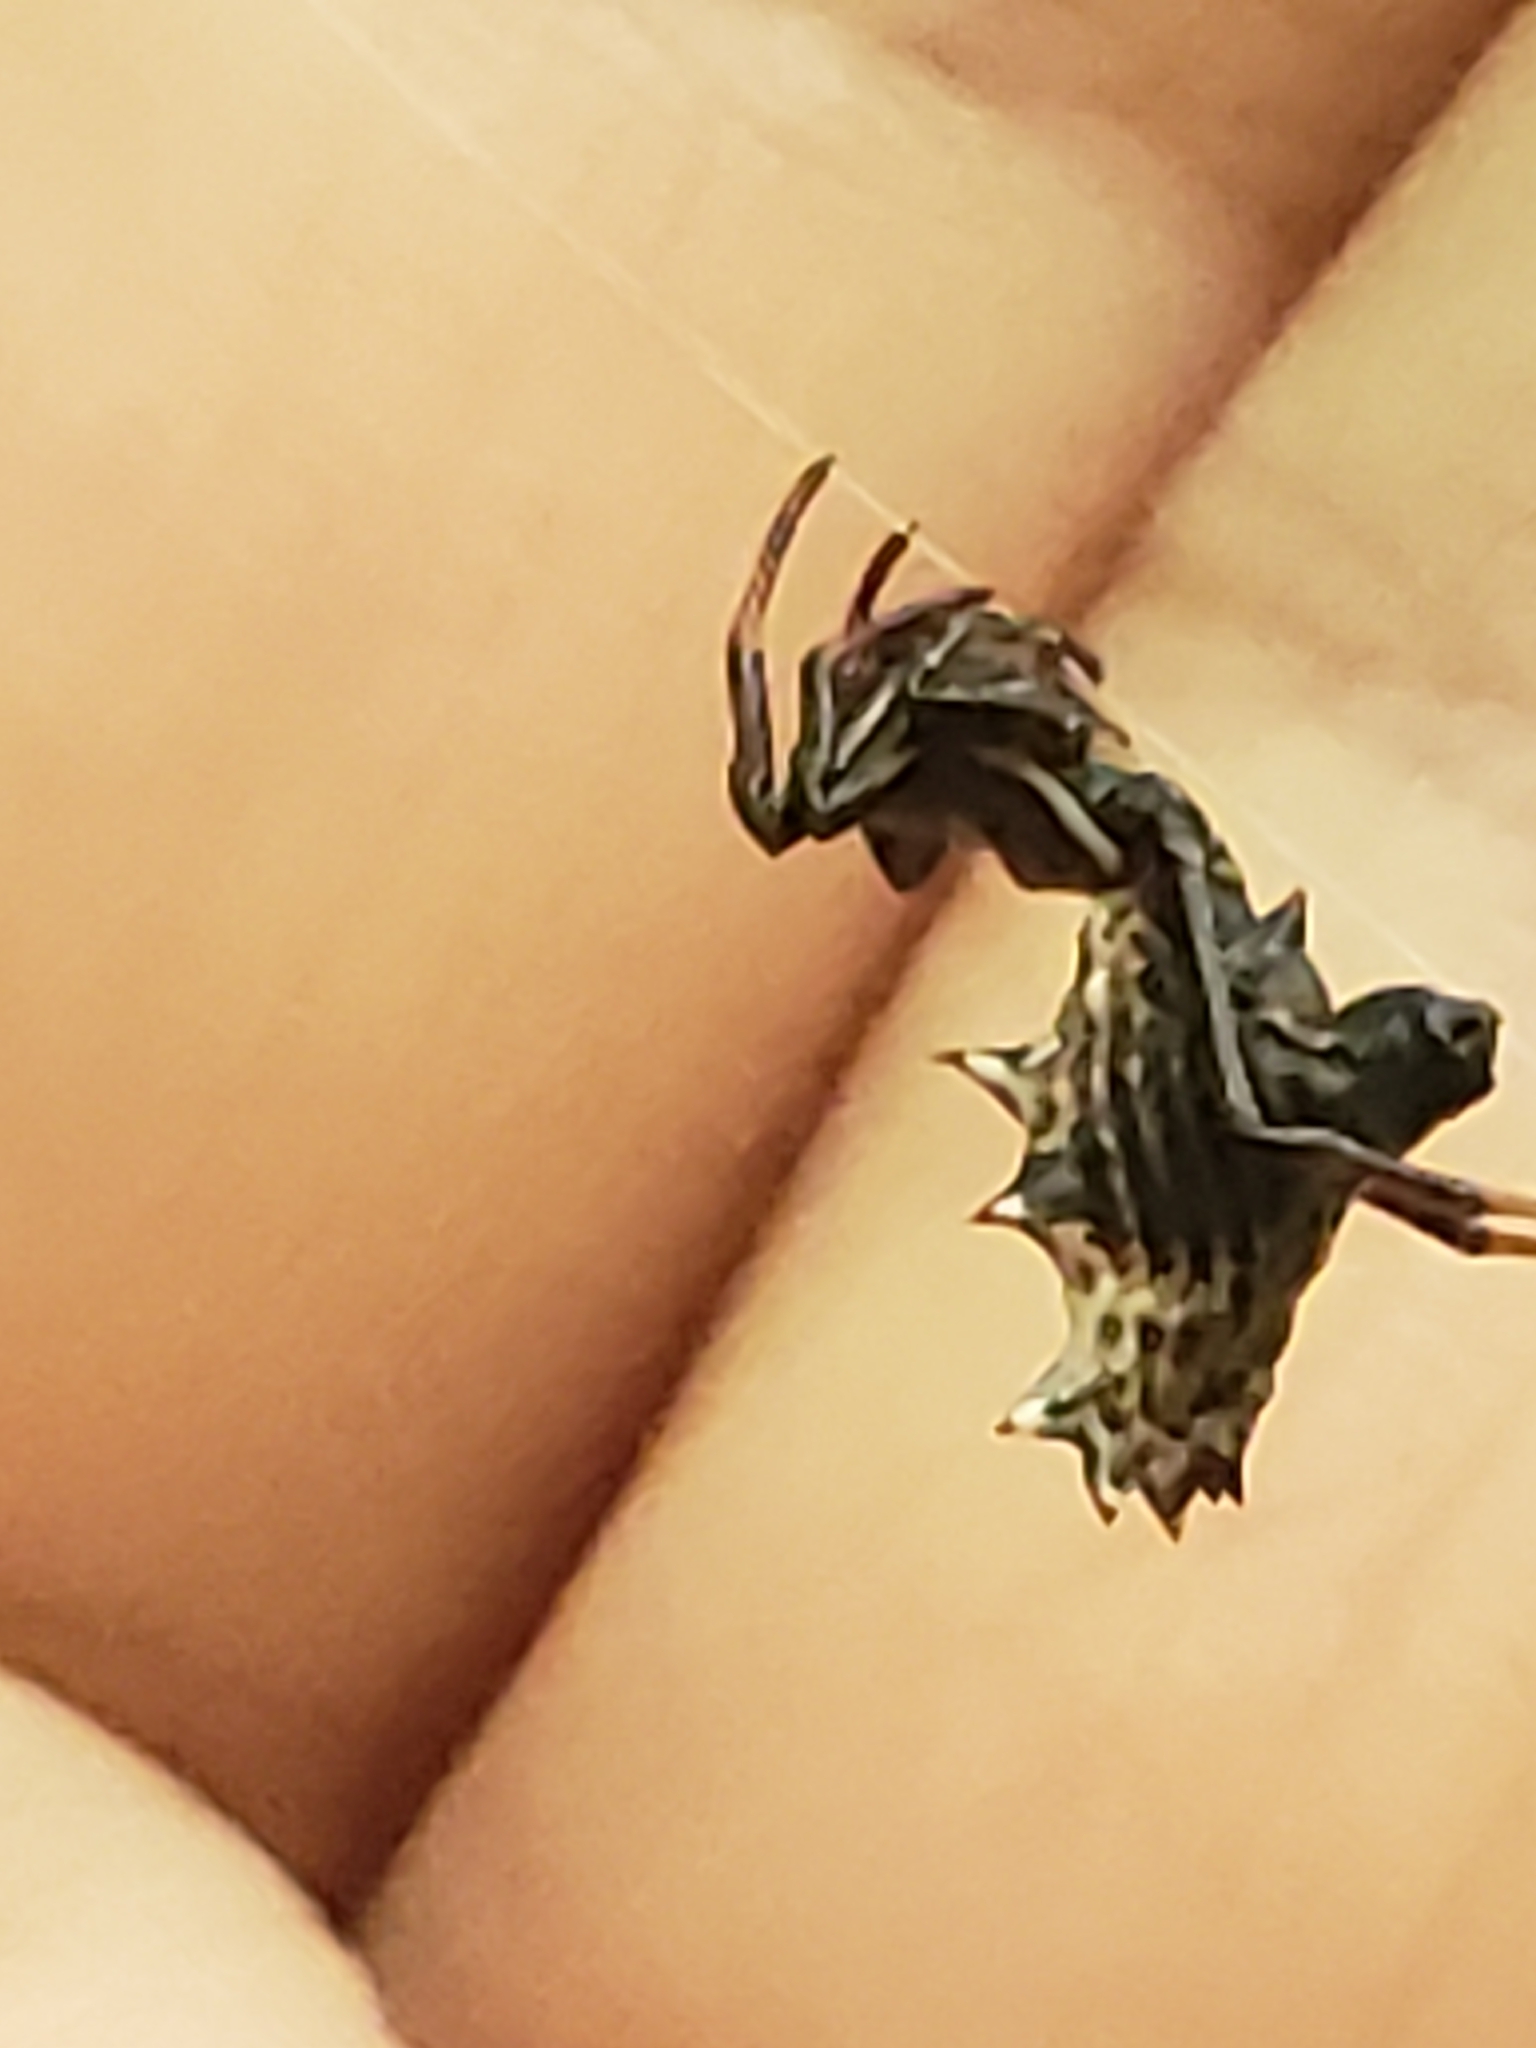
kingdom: Animalia
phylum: Arthropoda
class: Arachnida
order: Araneae
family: Araneidae
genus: Micrathena
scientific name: Micrathena gracilis
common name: Orb weavers
